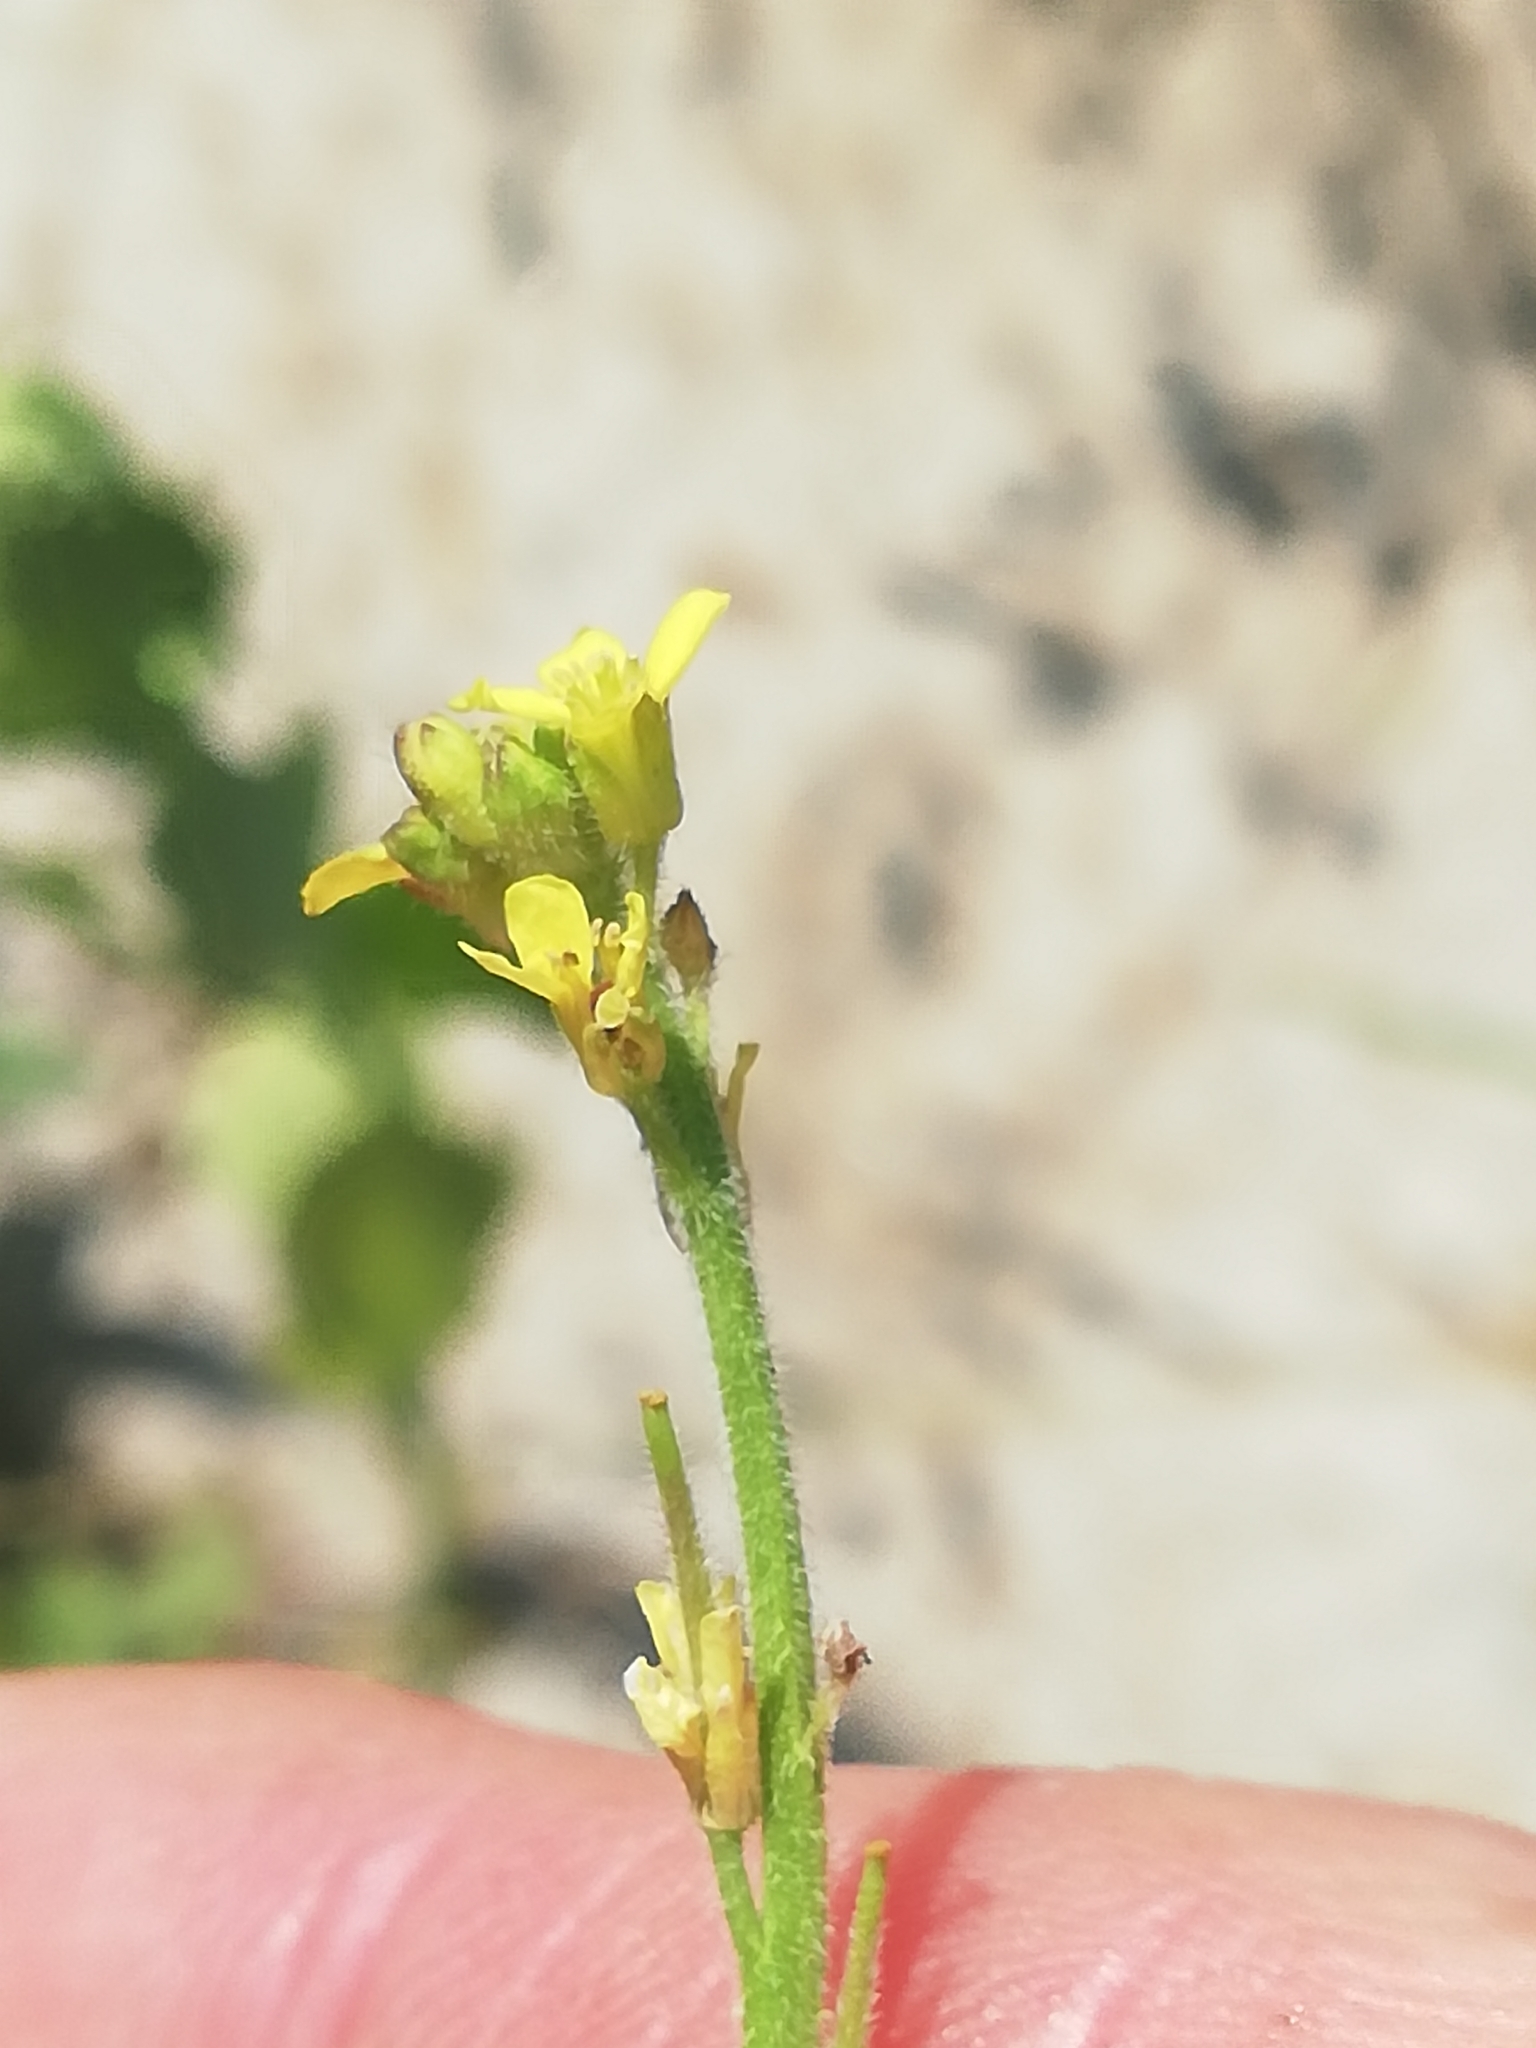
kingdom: Plantae
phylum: Tracheophyta
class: Magnoliopsida
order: Brassicales
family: Brassicaceae
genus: Sisymbrium
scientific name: Sisymbrium officinale
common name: Hedge mustard
